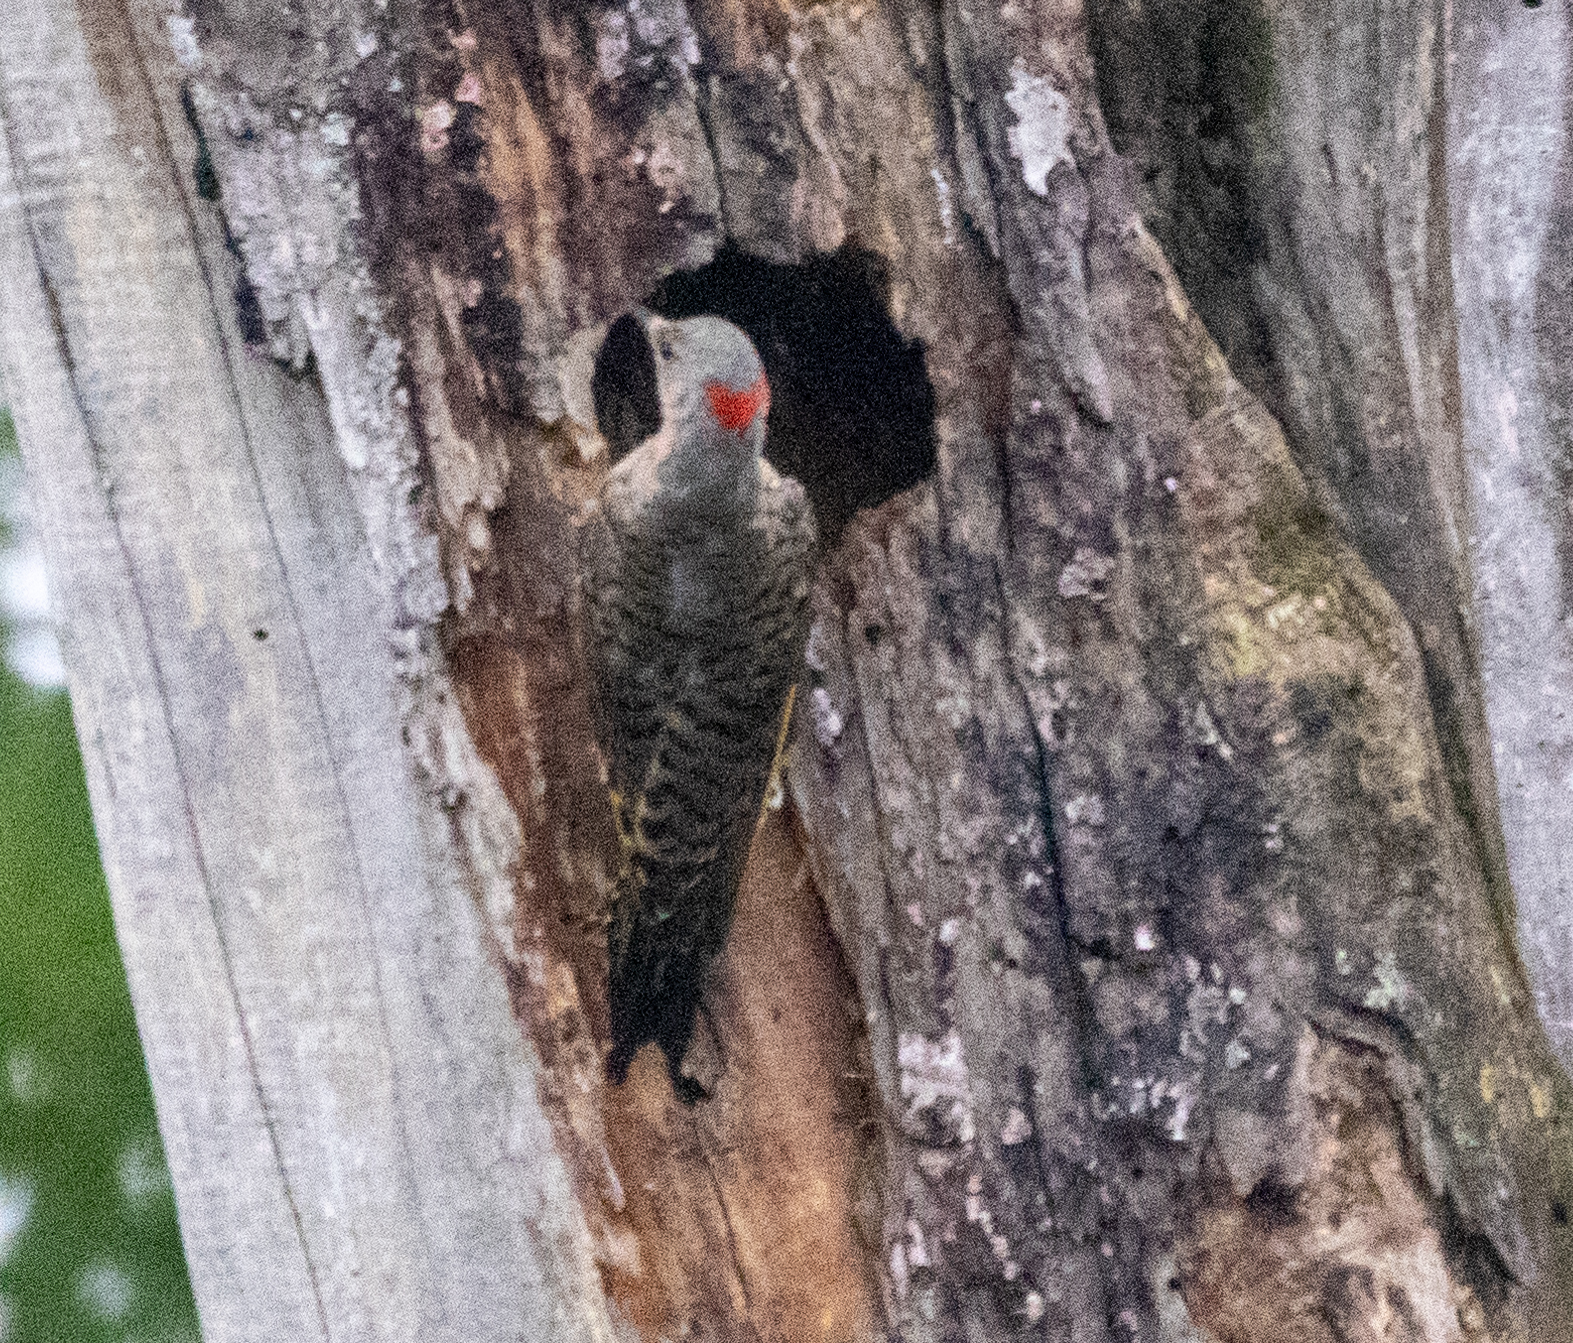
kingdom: Animalia
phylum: Chordata
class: Aves
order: Piciformes
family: Picidae
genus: Colaptes
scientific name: Colaptes auratus
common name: Northern flicker
